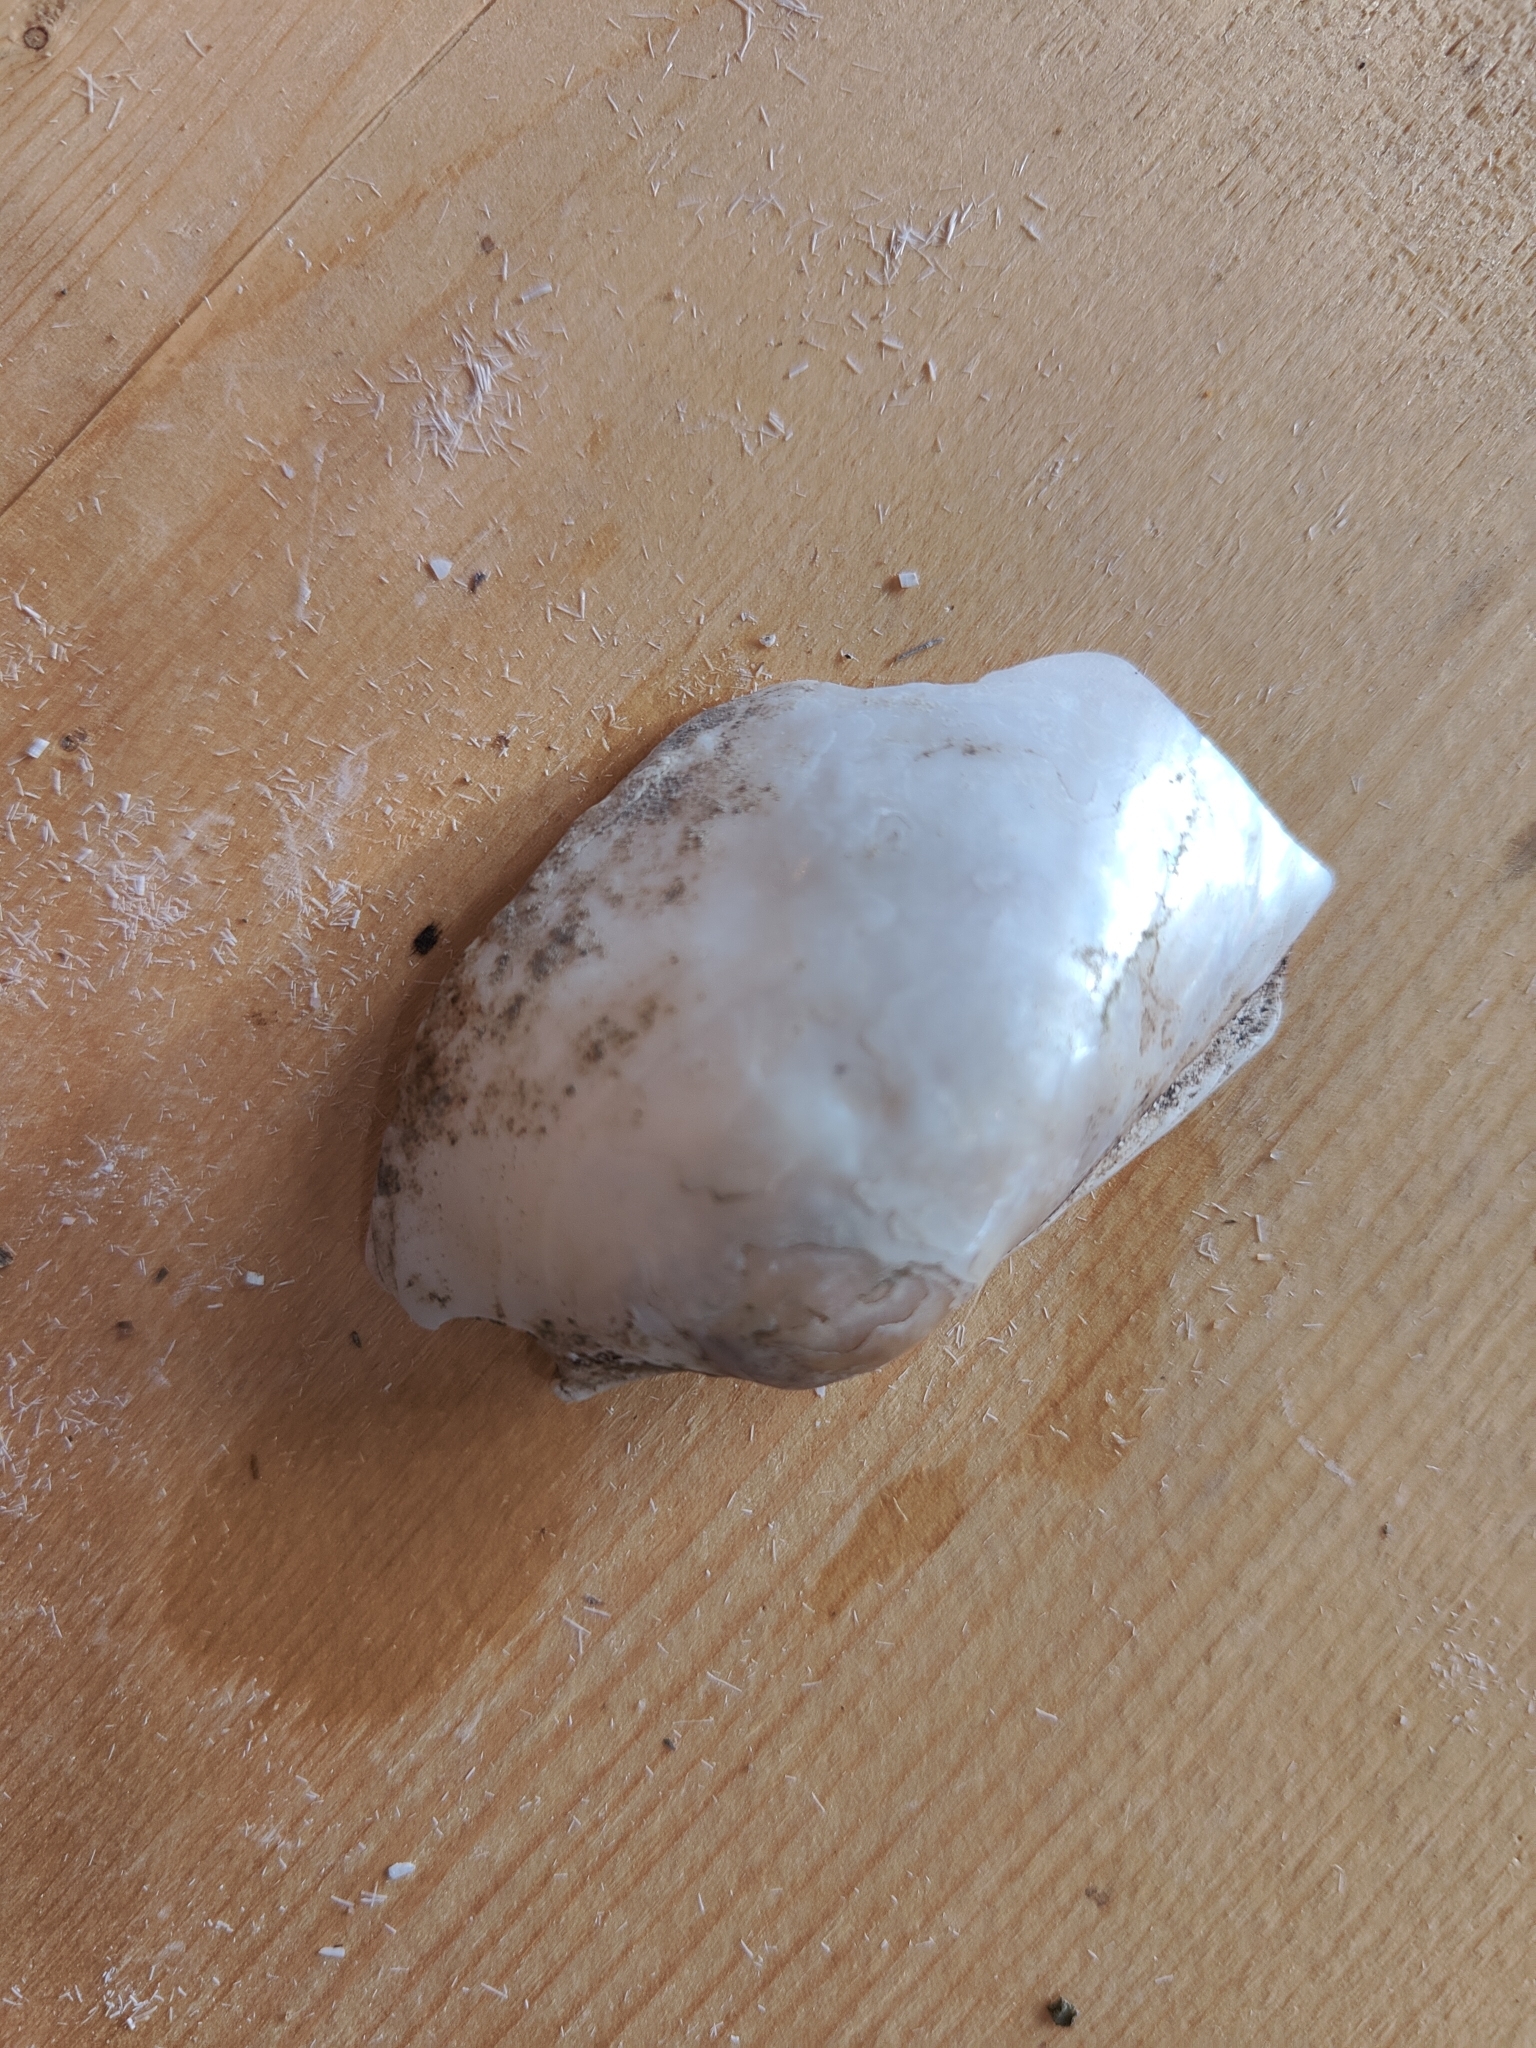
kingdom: Animalia
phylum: Mollusca
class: Bivalvia
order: Unionida
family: Unionidae
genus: Lasmigona
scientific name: Lasmigona compressa
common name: Creek heelsplitter
